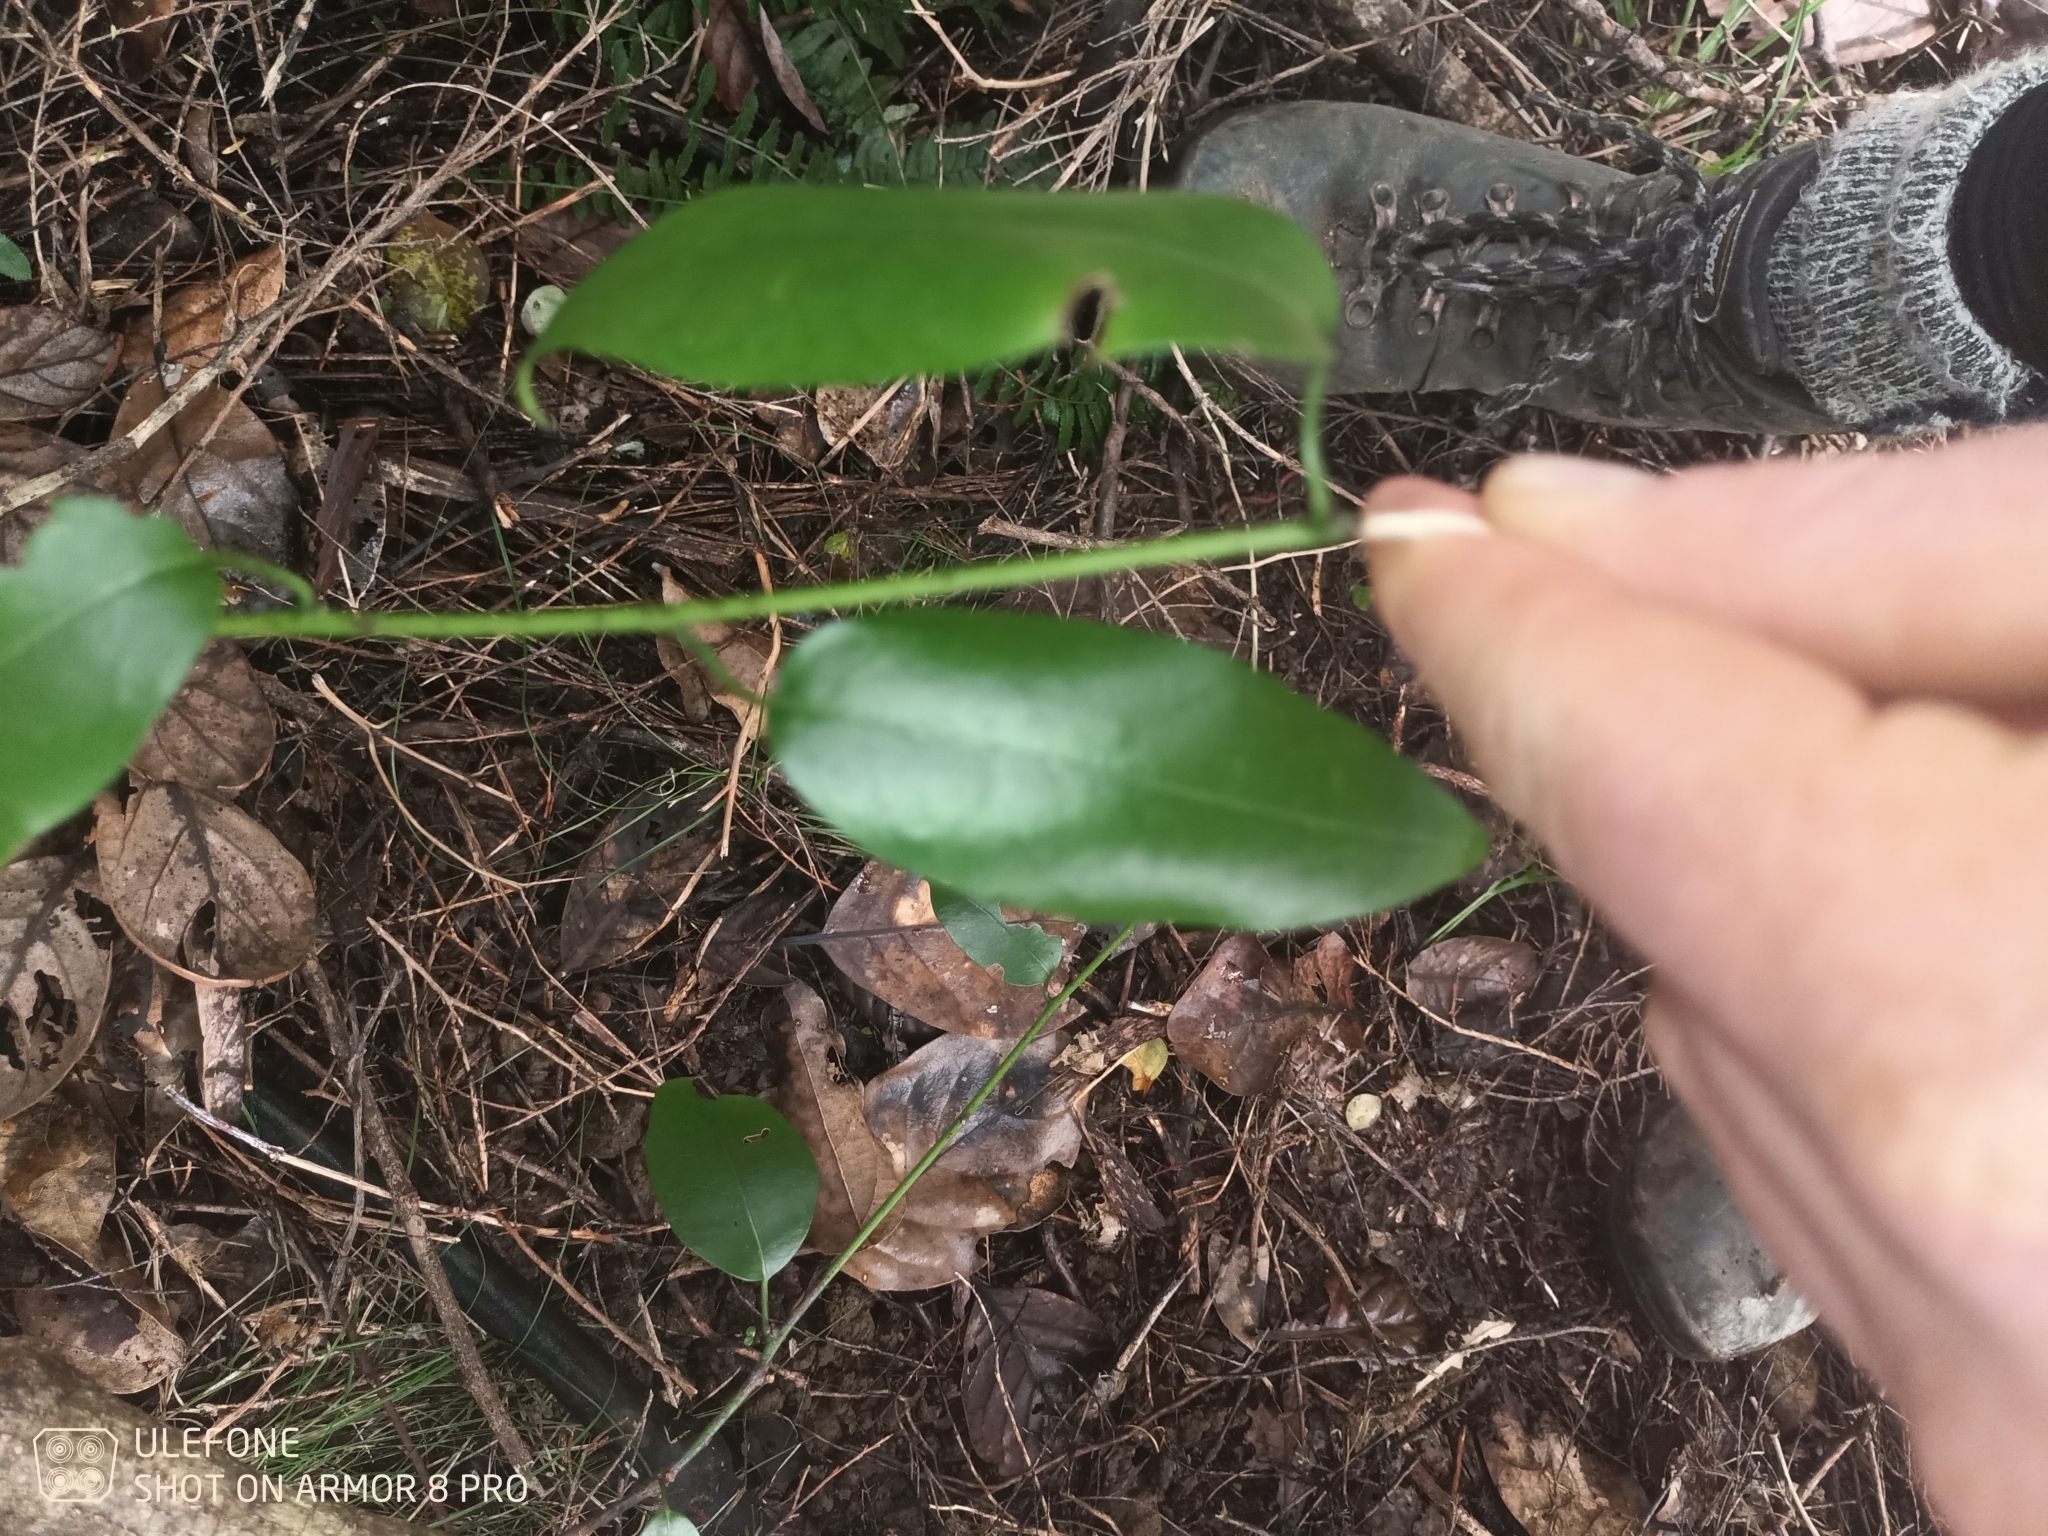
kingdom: Plantae
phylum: Tracheophyta
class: Magnoliopsida
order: Malpighiales
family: Passifloraceae
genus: Passiflora
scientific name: Passiflora tetrandra
